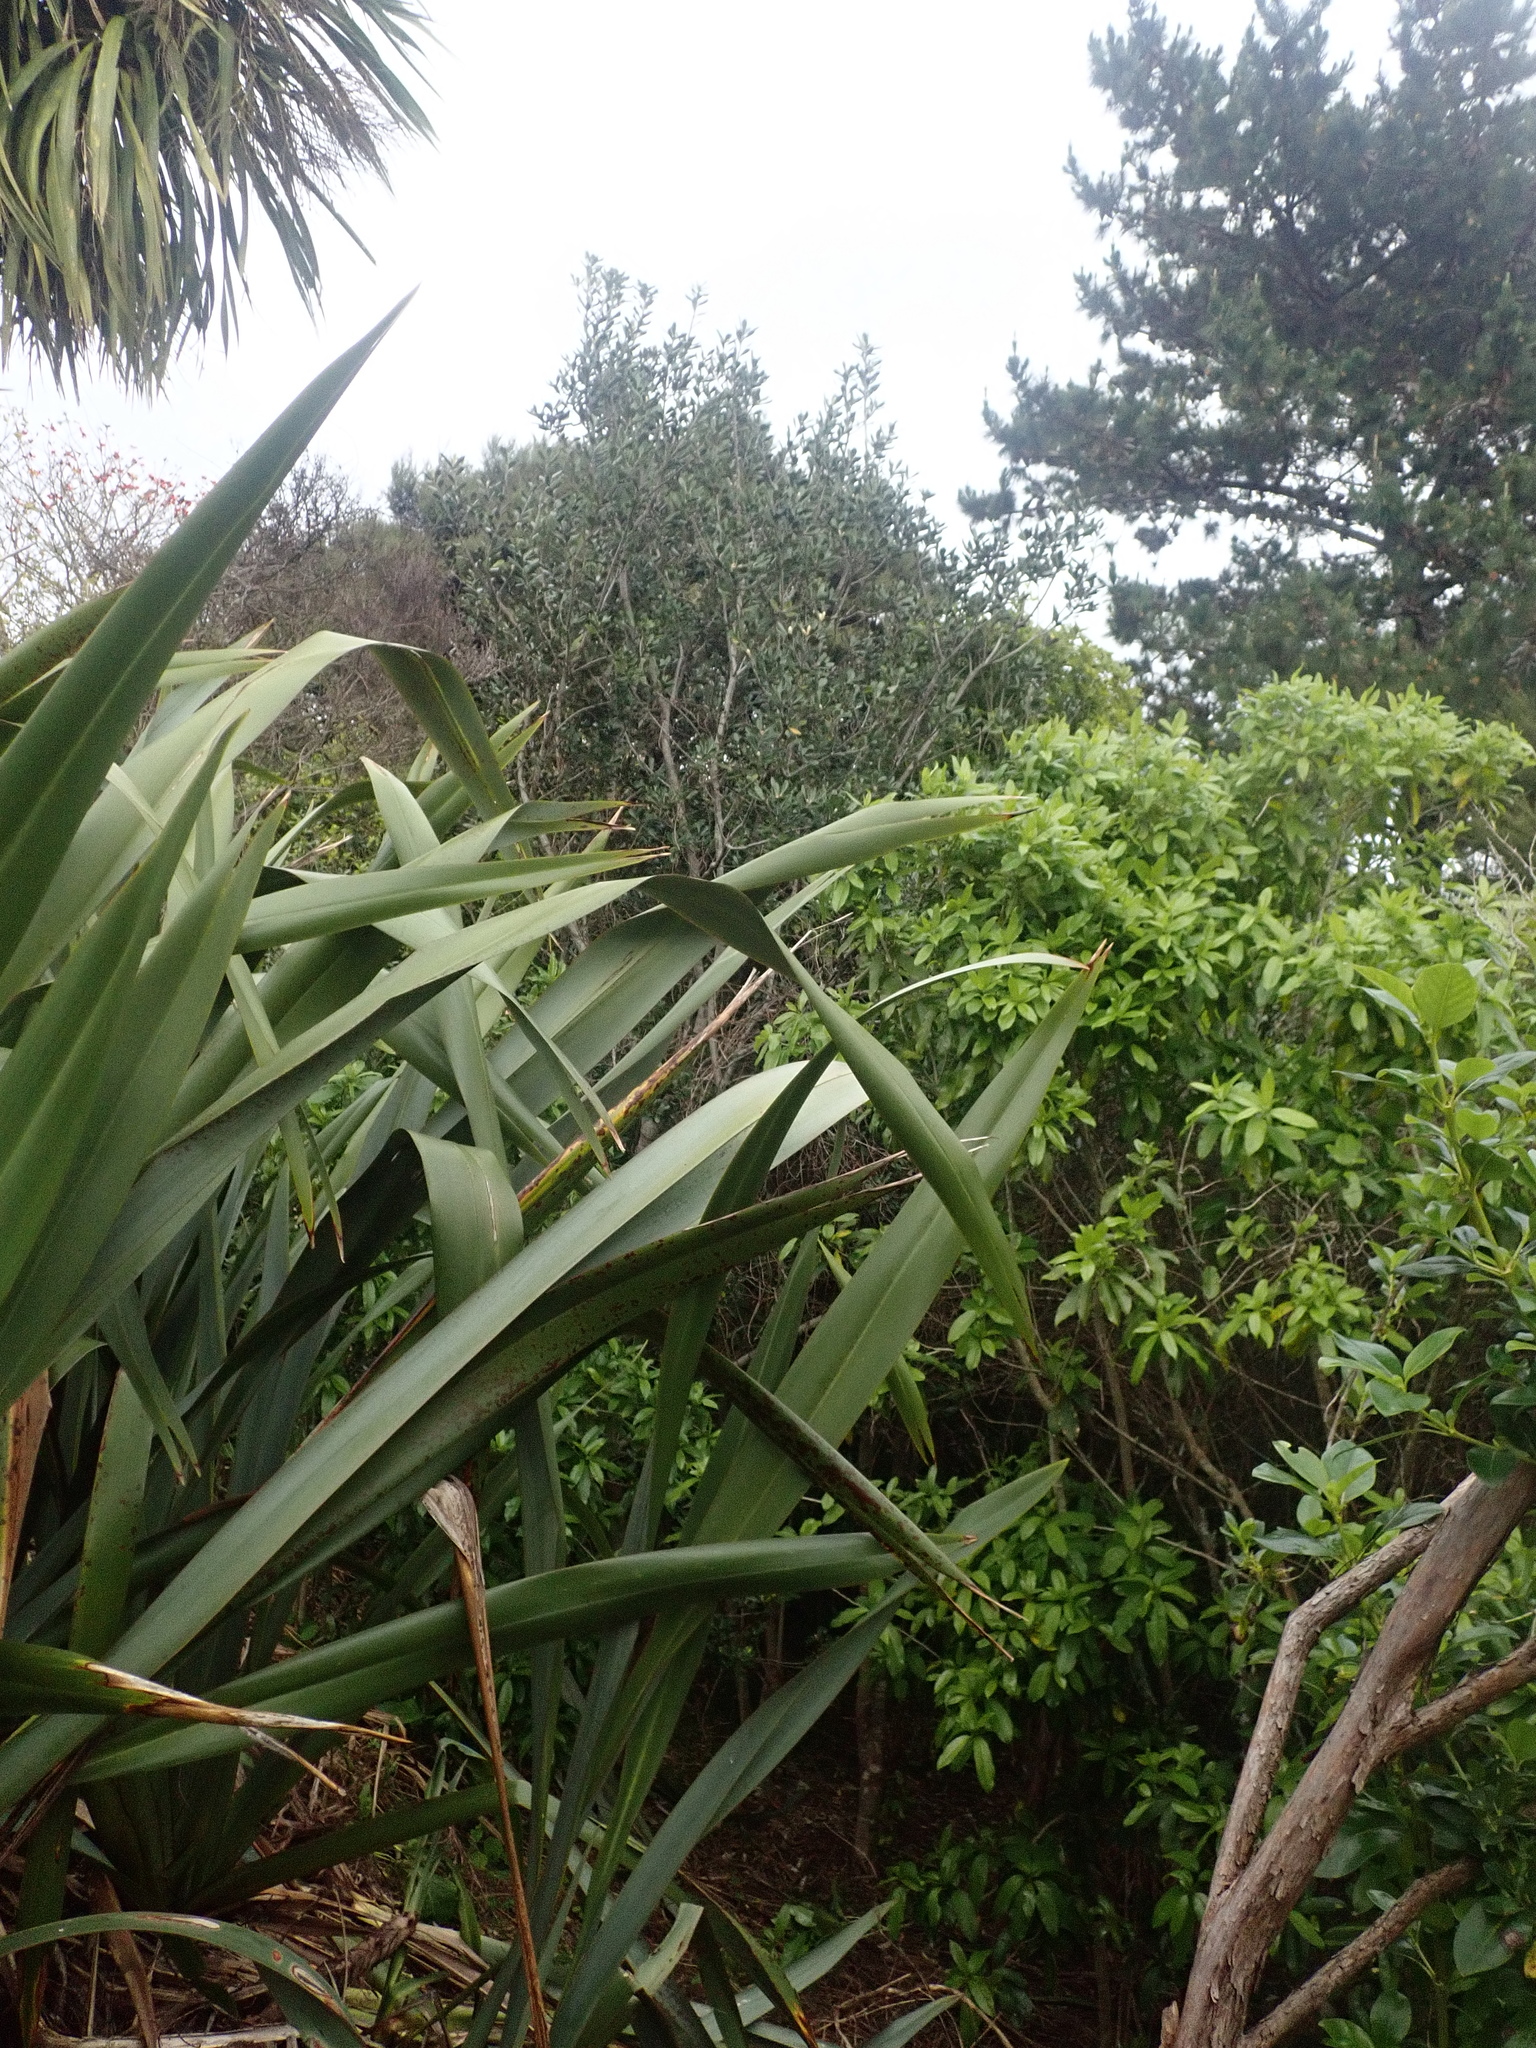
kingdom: Plantae
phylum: Tracheophyta
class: Magnoliopsida
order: Apiales
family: Pittosporaceae
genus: Pittosporum
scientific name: Pittosporum crassifolium
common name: Karo
